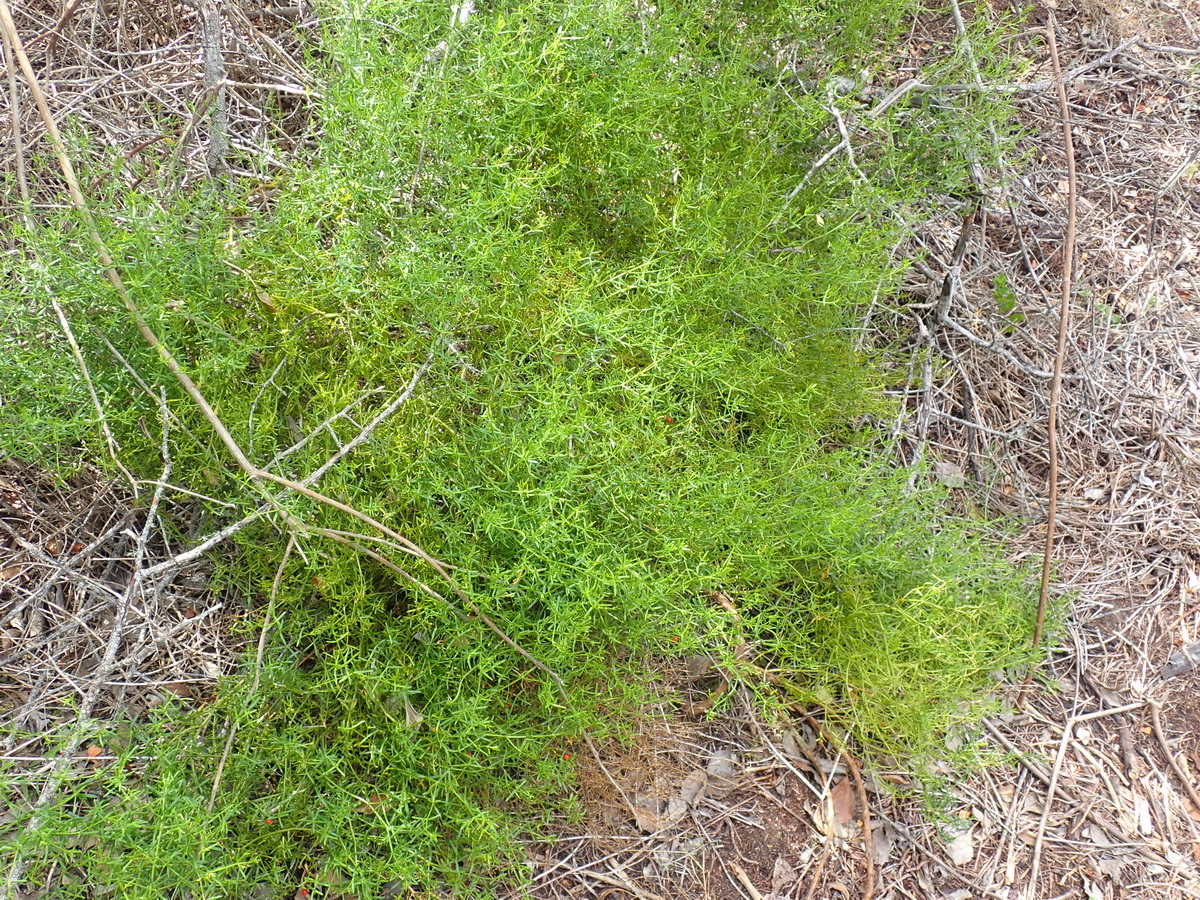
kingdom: Plantae
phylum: Tracheophyta
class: Magnoliopsida
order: Gentianales
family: Gentianaceae
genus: Chironia
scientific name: Chironia baccifera
